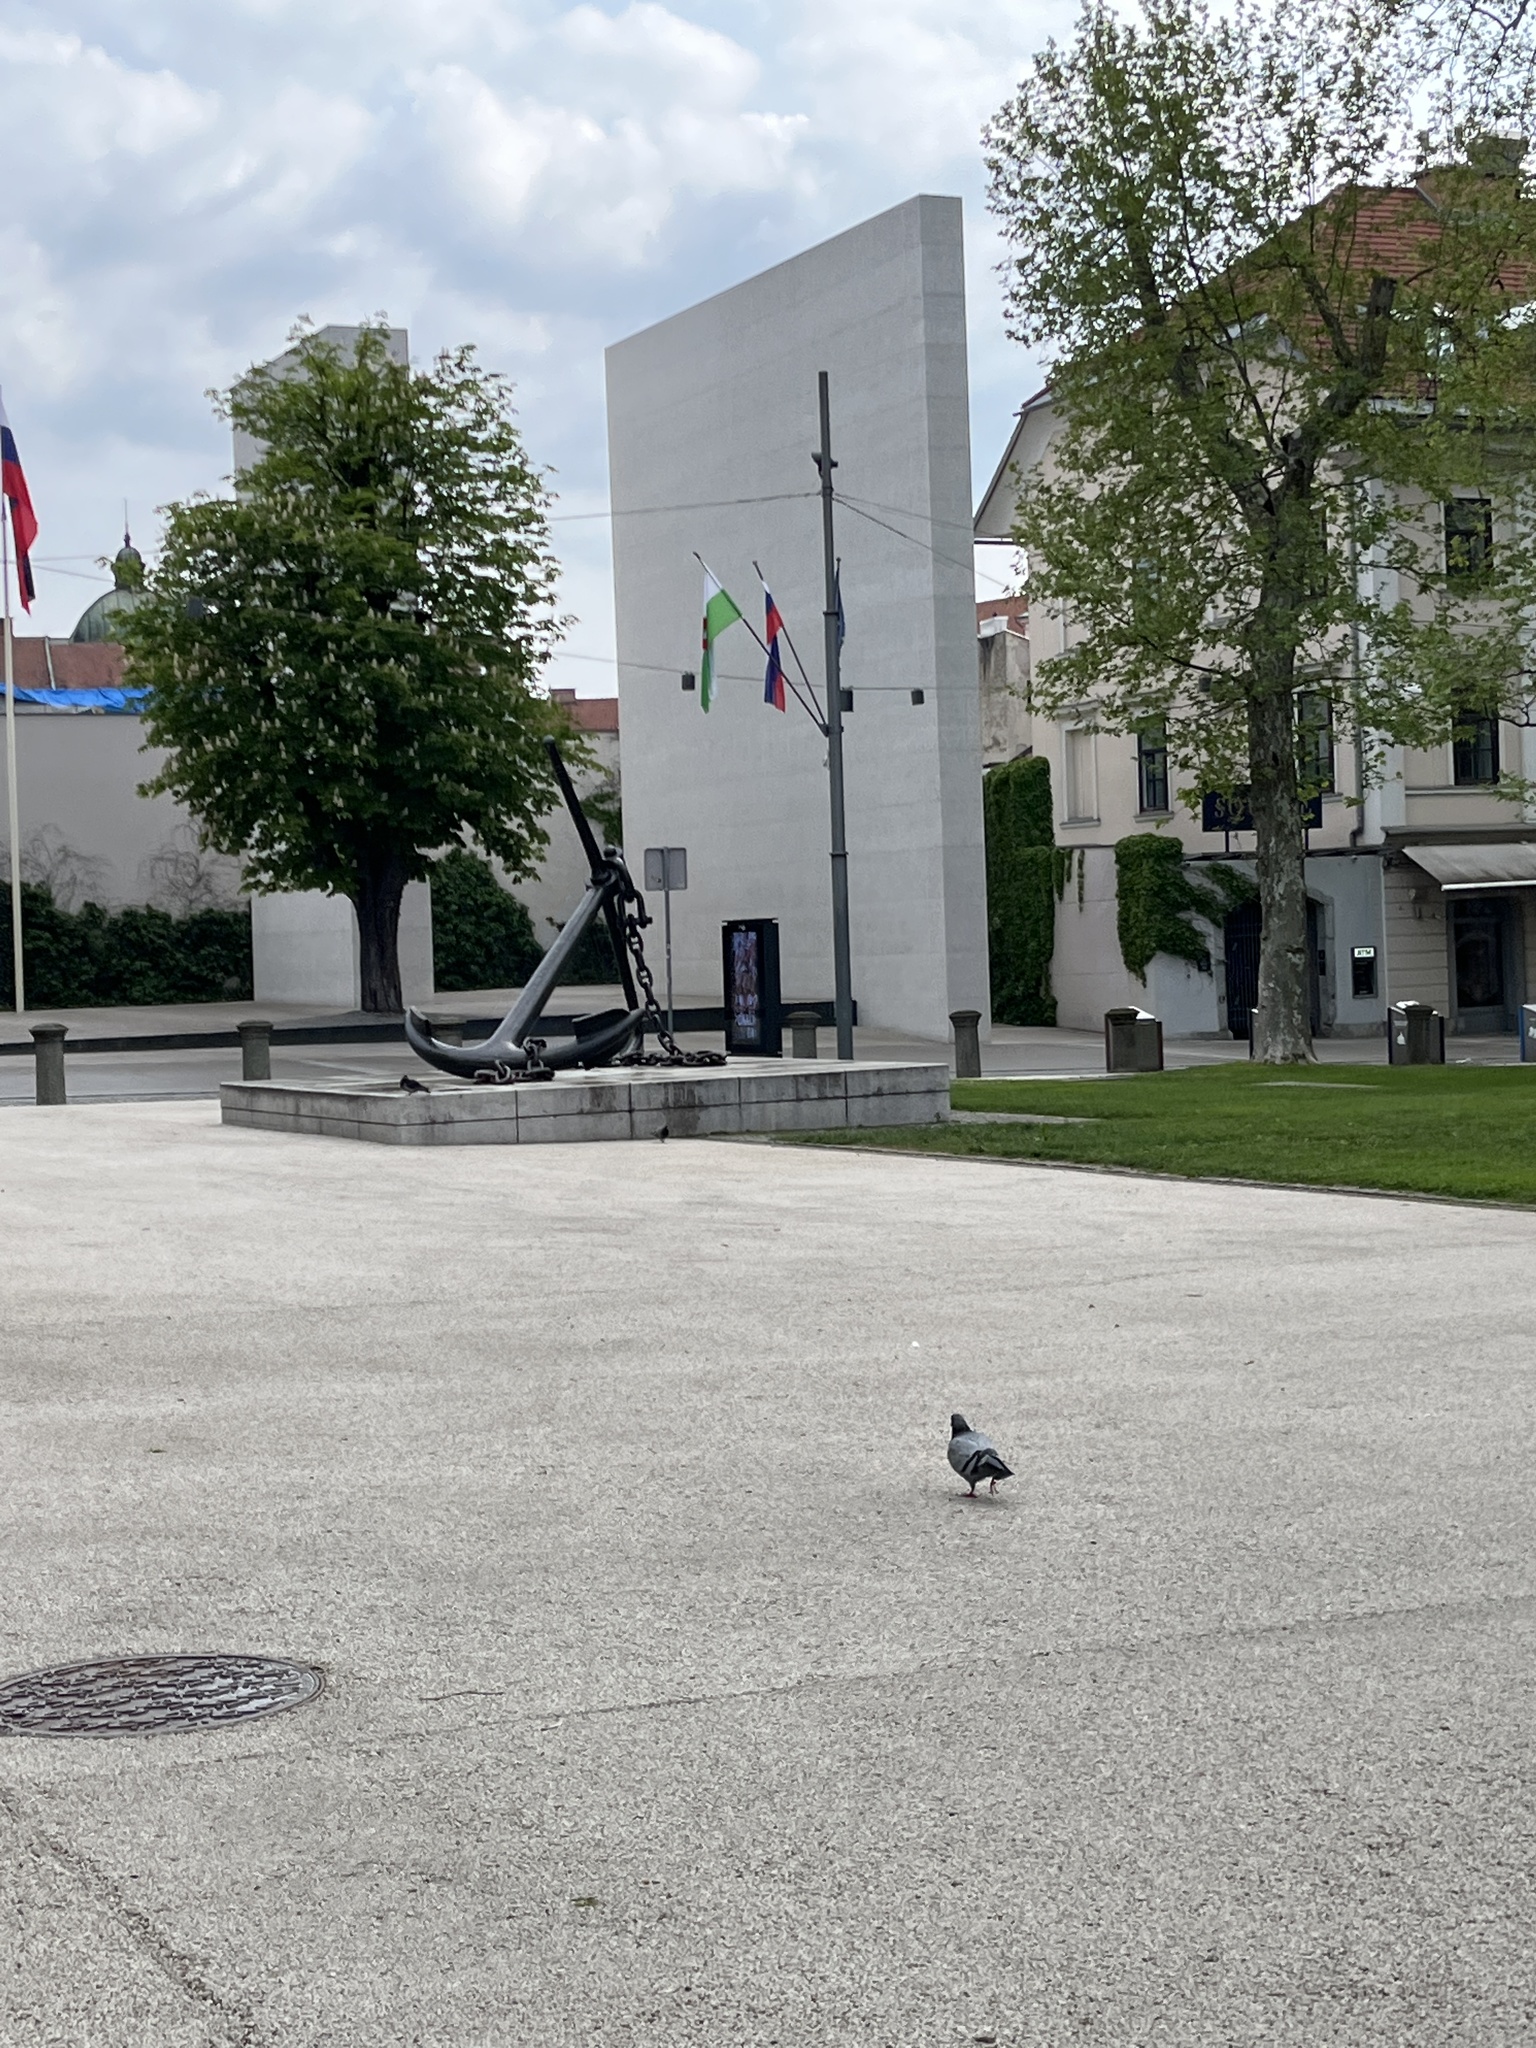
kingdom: Animalia
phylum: Chordata
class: Aves
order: Columbiformes
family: Columbidae
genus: Columba
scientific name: Columba livia
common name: Rock pigeon
